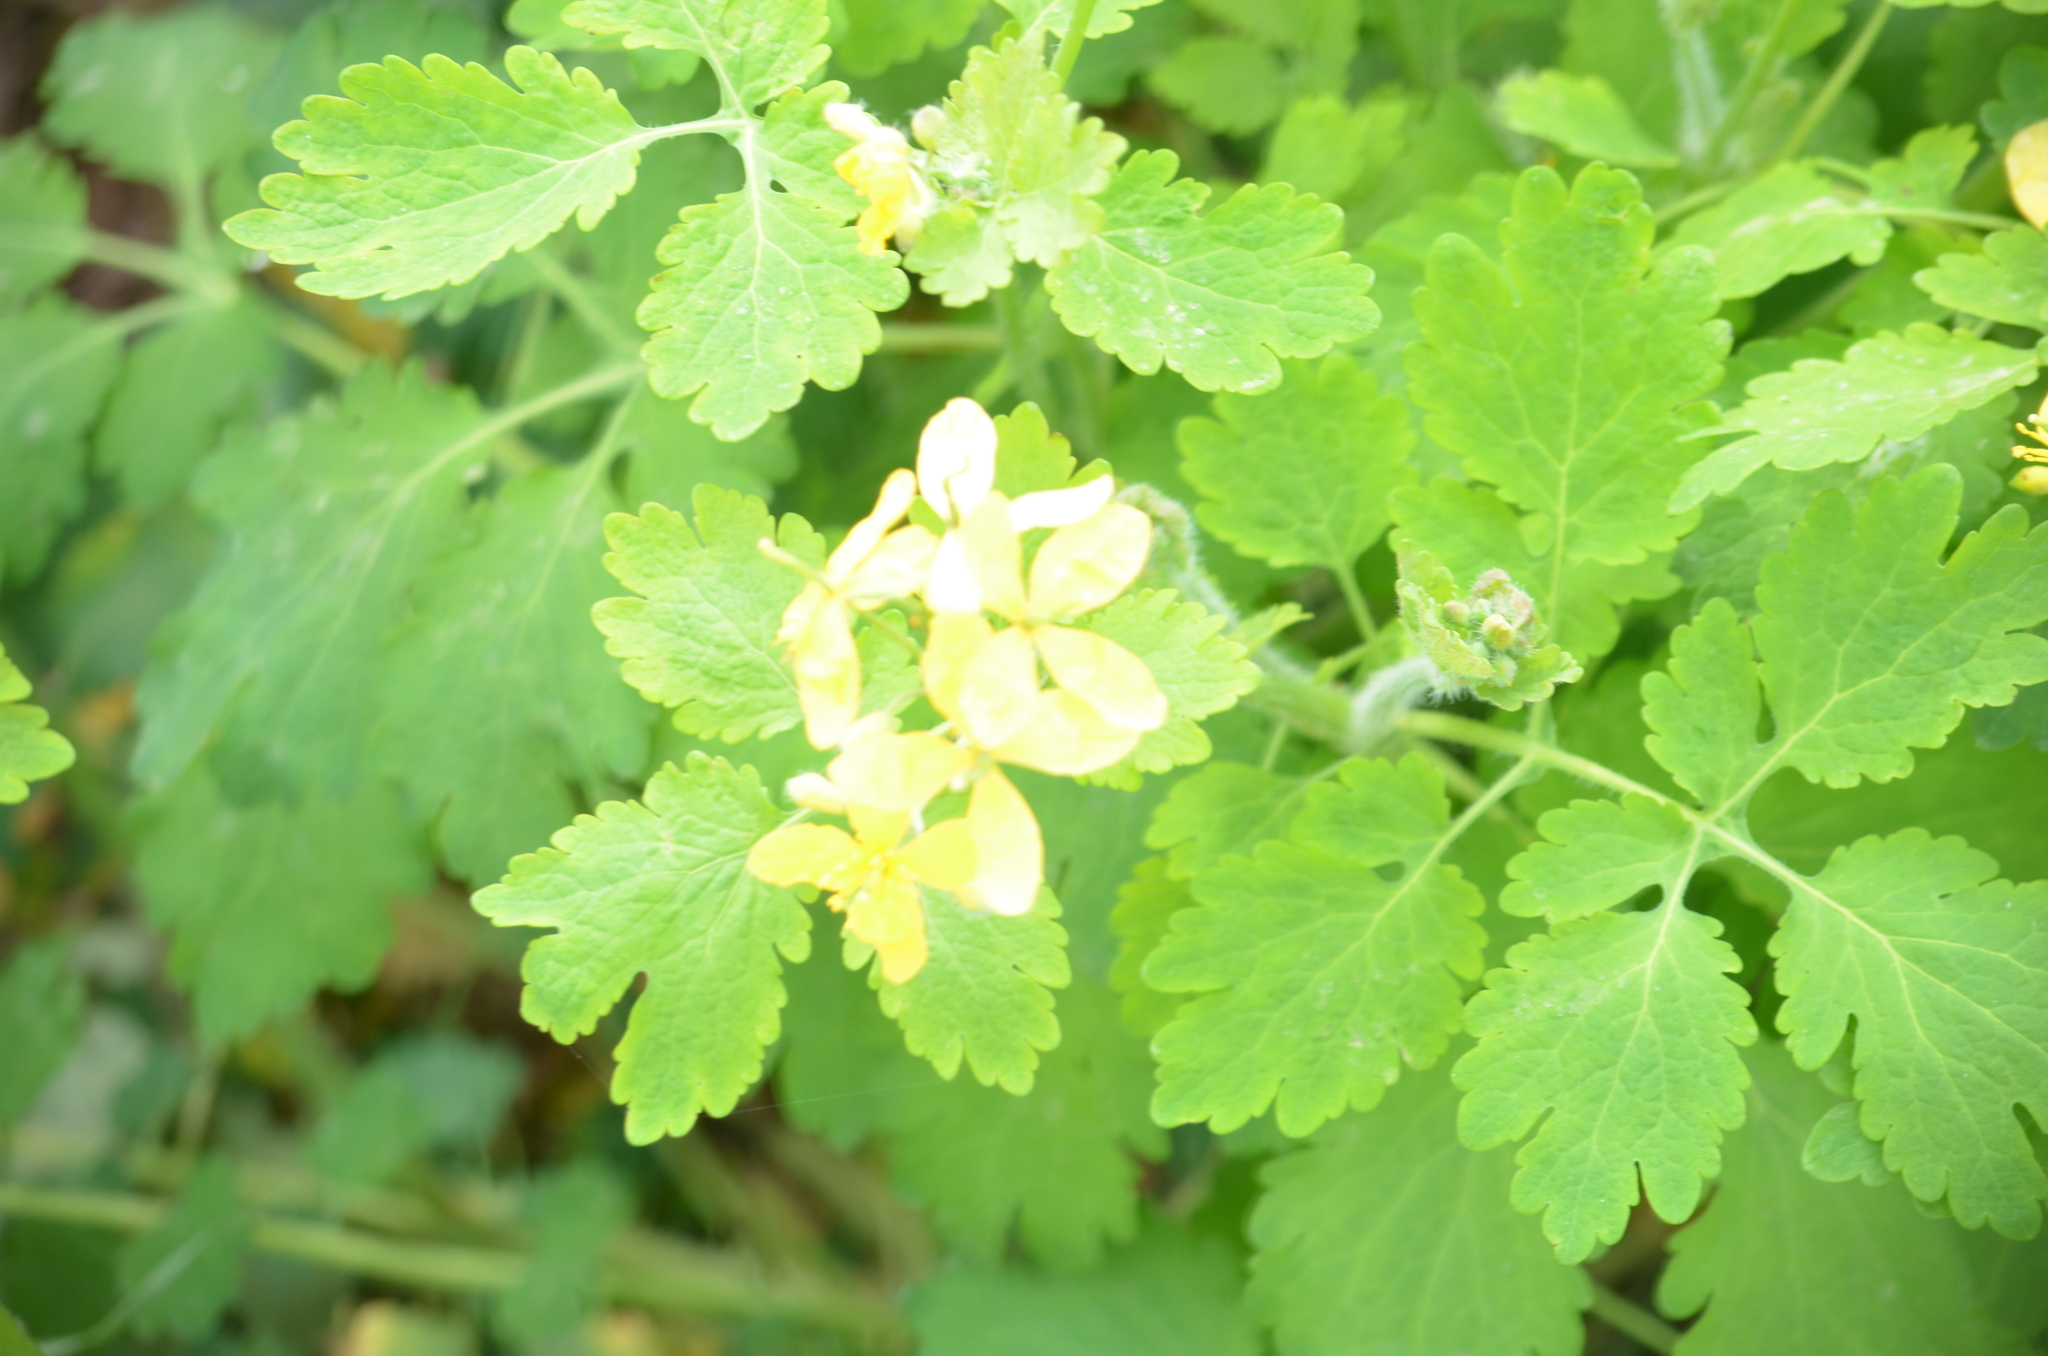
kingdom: Plantae
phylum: Tracheophyta
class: Magnoliopsida
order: Ranunculales
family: Papaveraceae
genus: Chelidonium
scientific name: Chelidonium majus
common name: Greater celandine
